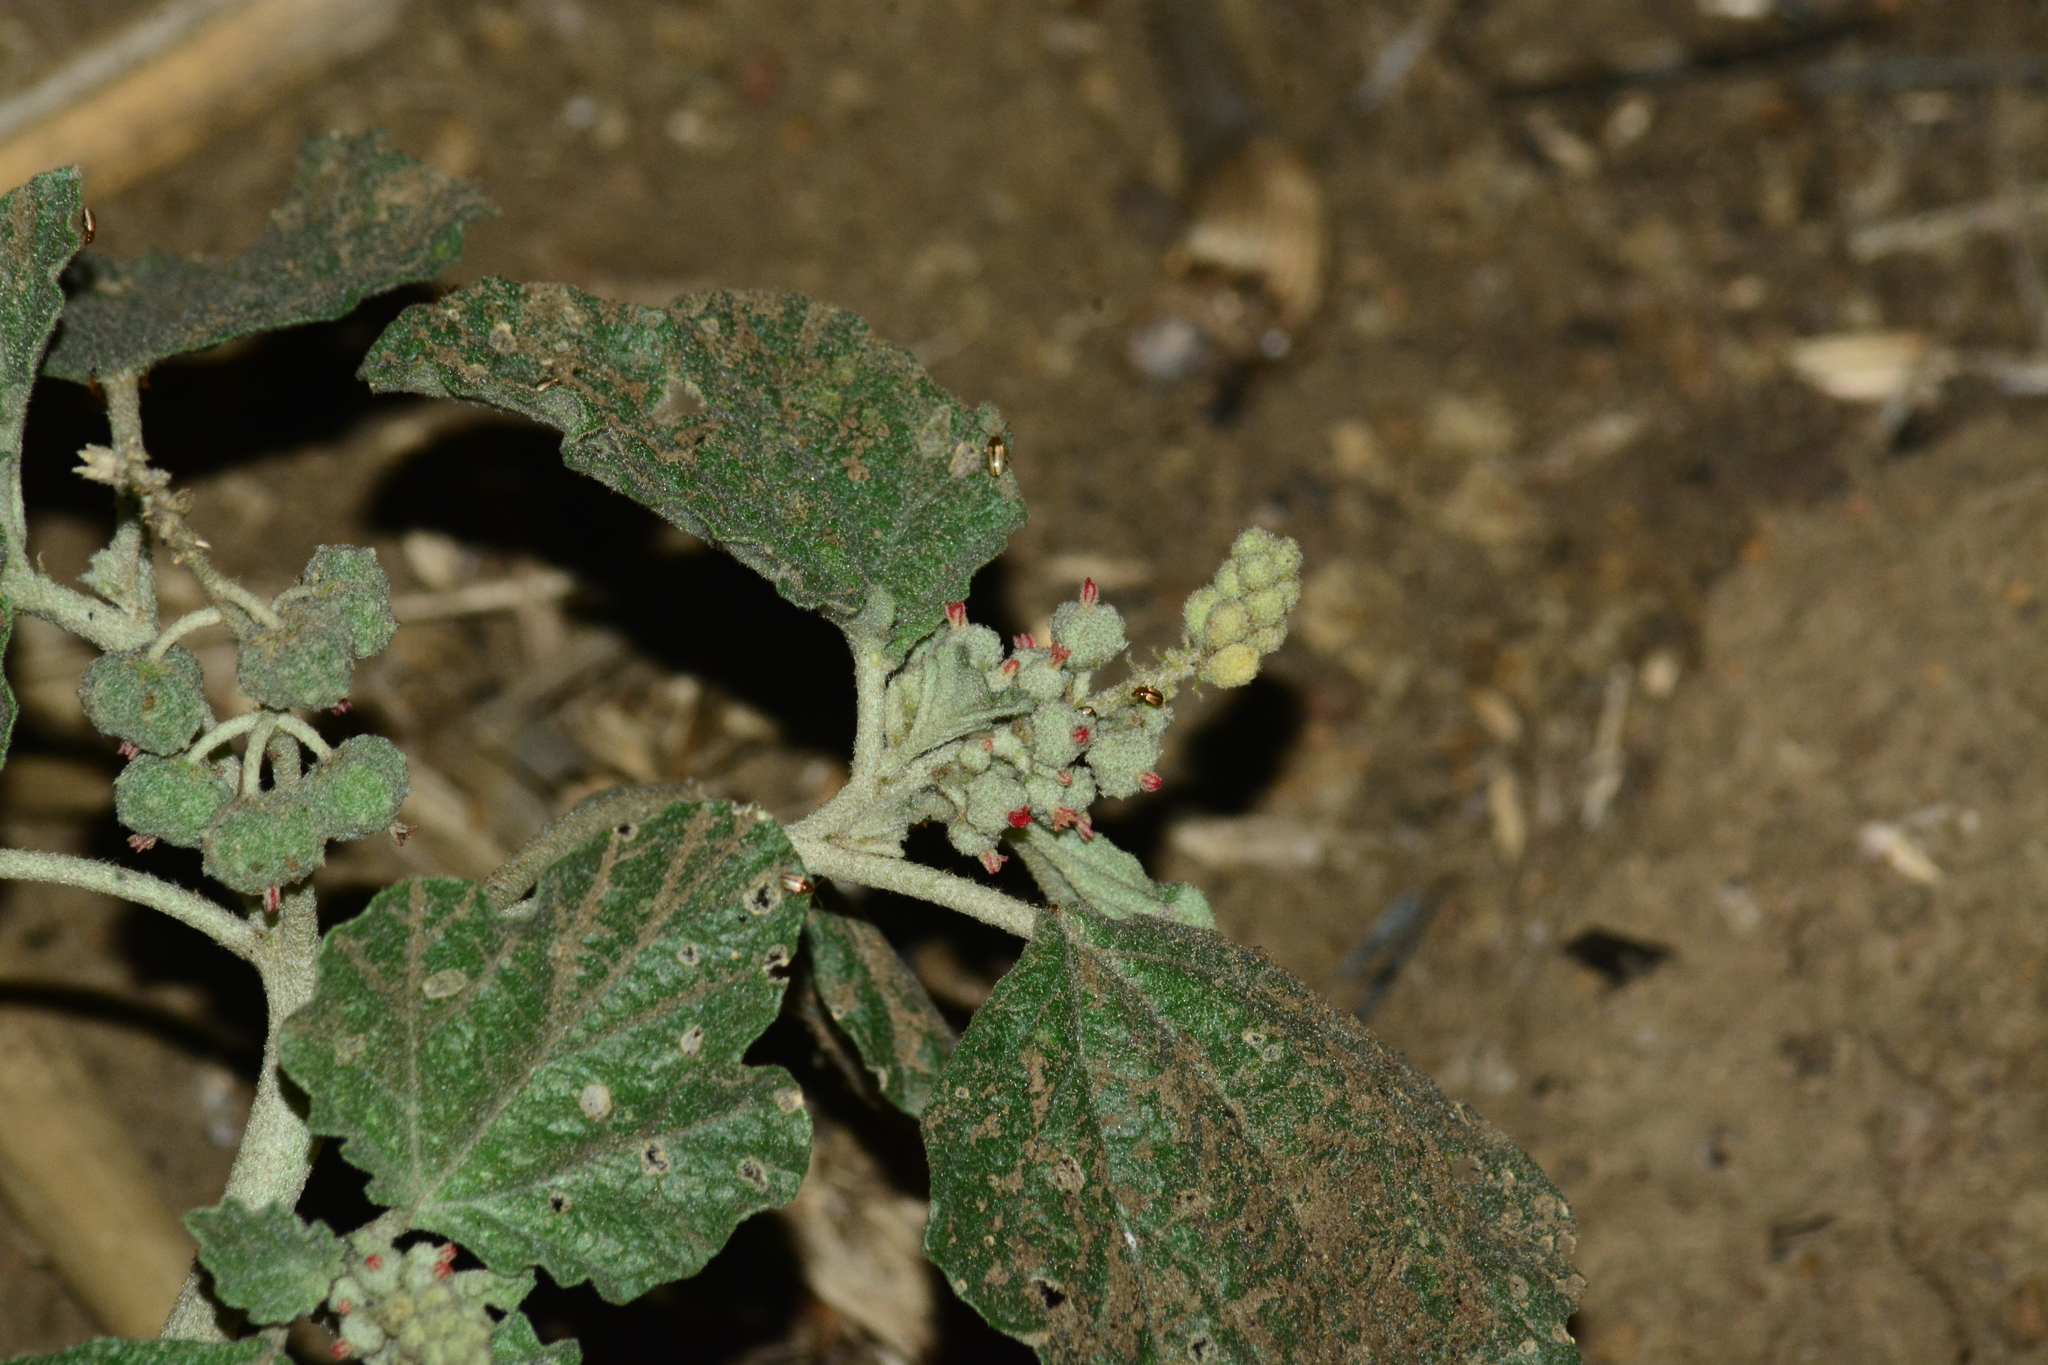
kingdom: Plantae
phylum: Tracheophyta
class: Magnoliopsida
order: Malpighiales
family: Euphorbiaceae
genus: Chrozophora
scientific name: Chrozophora rottleri
